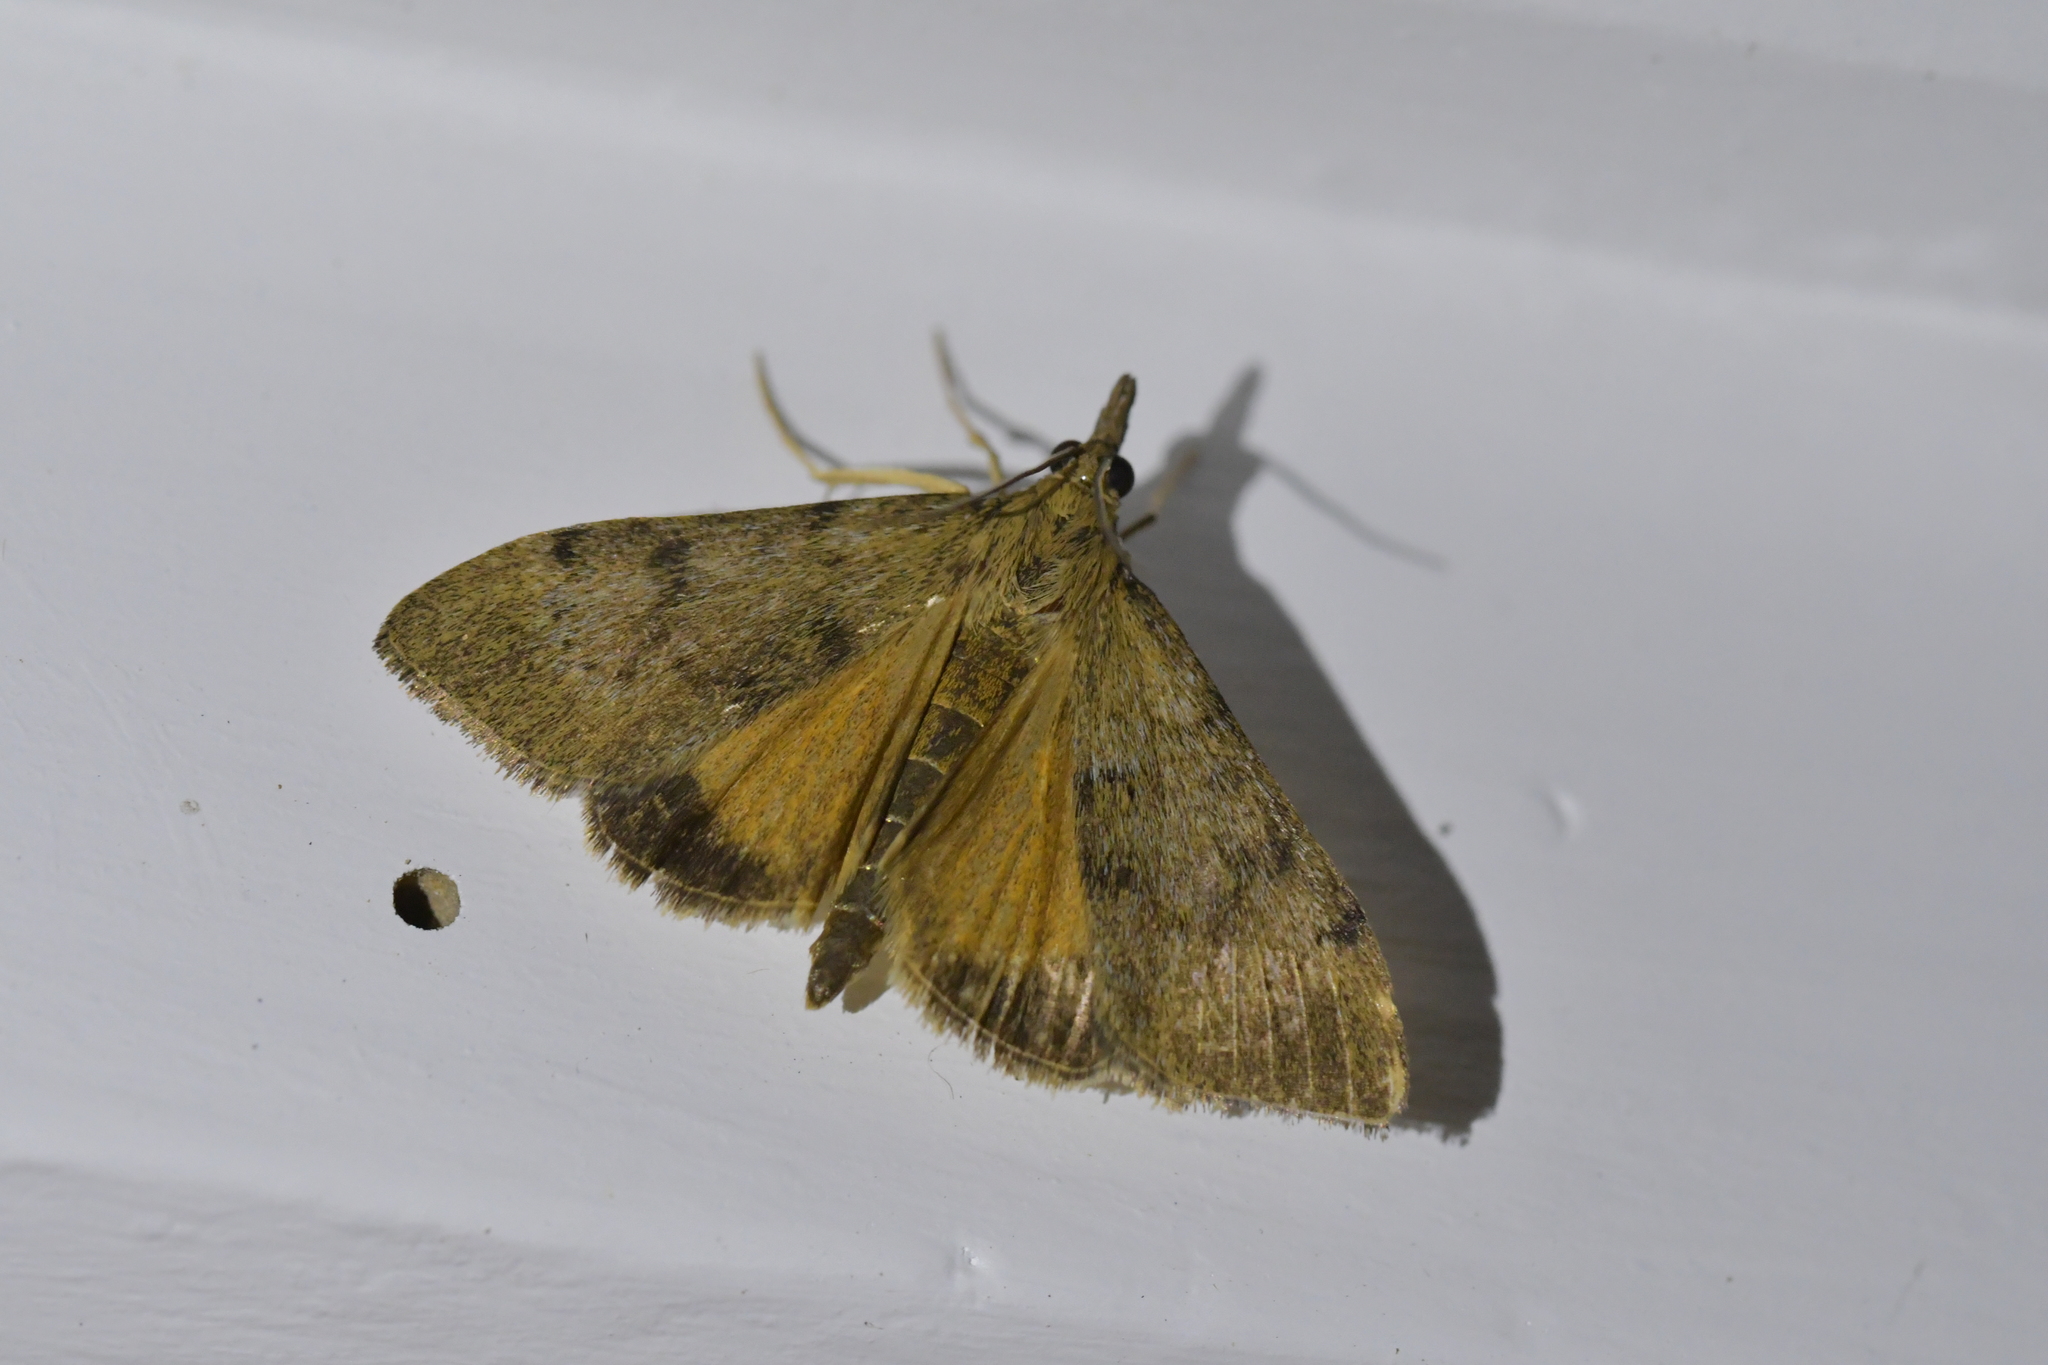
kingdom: Animalia
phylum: Arthropoda
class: Insecta
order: Lepidoptera
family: Crambidae
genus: Uresiphita
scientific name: Uresiphita
